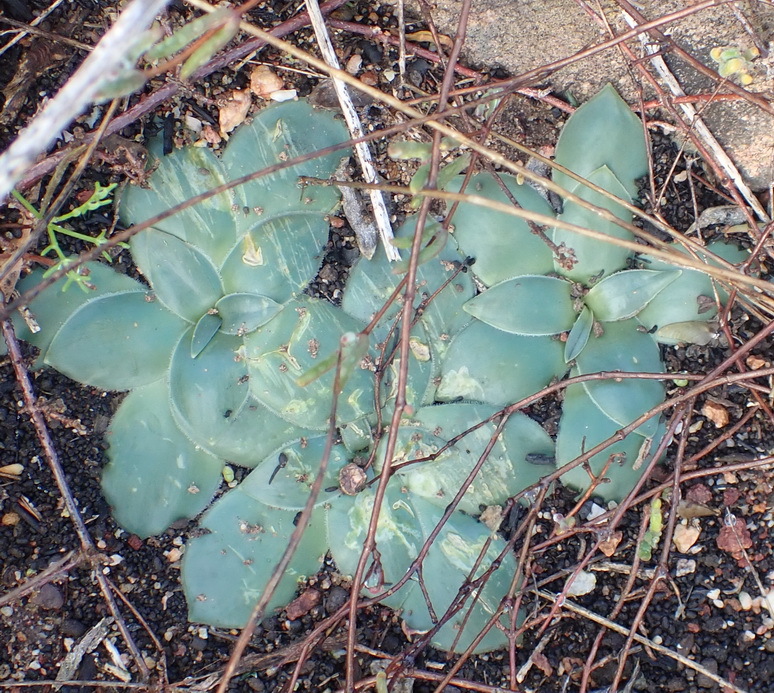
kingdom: Plantae
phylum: Tracheophyta
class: Liliopsida
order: Asparagales
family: Asparagaceae
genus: Drimia
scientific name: Drimia ciliata
